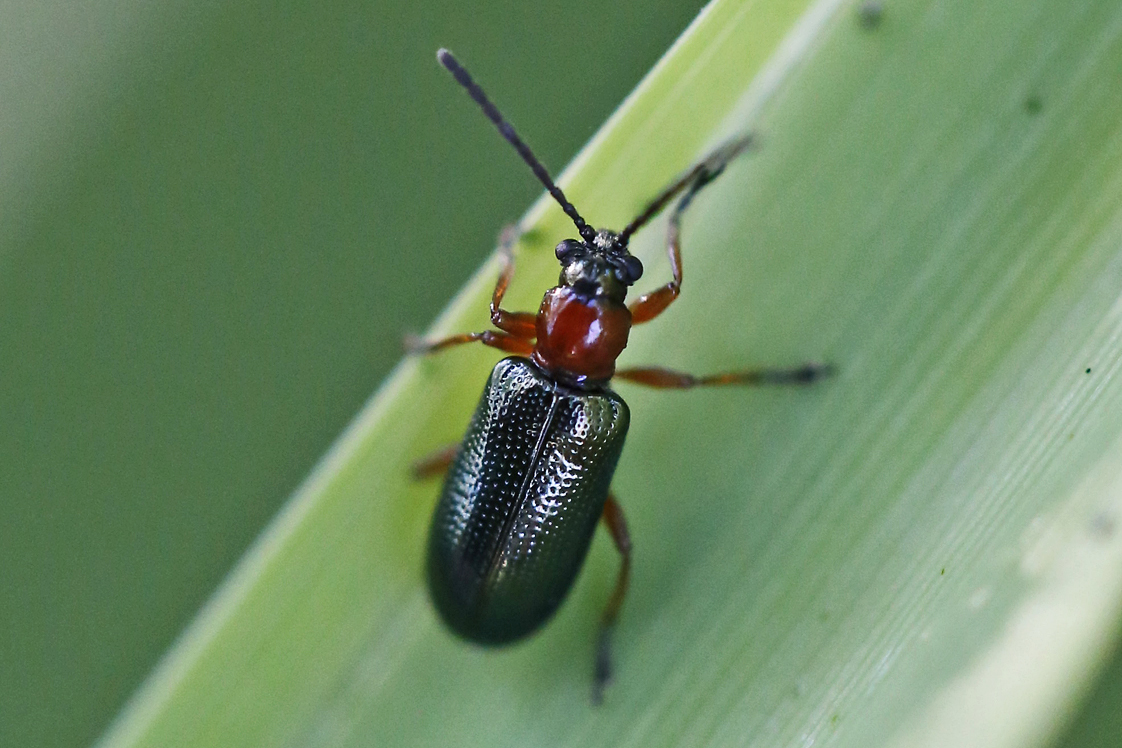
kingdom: Animalia
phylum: Arthropoda
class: Insecta
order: Coleoptera
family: Chrysomelidae
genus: Oulema
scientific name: Oulema melanopus
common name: Cereal leaf beetle
